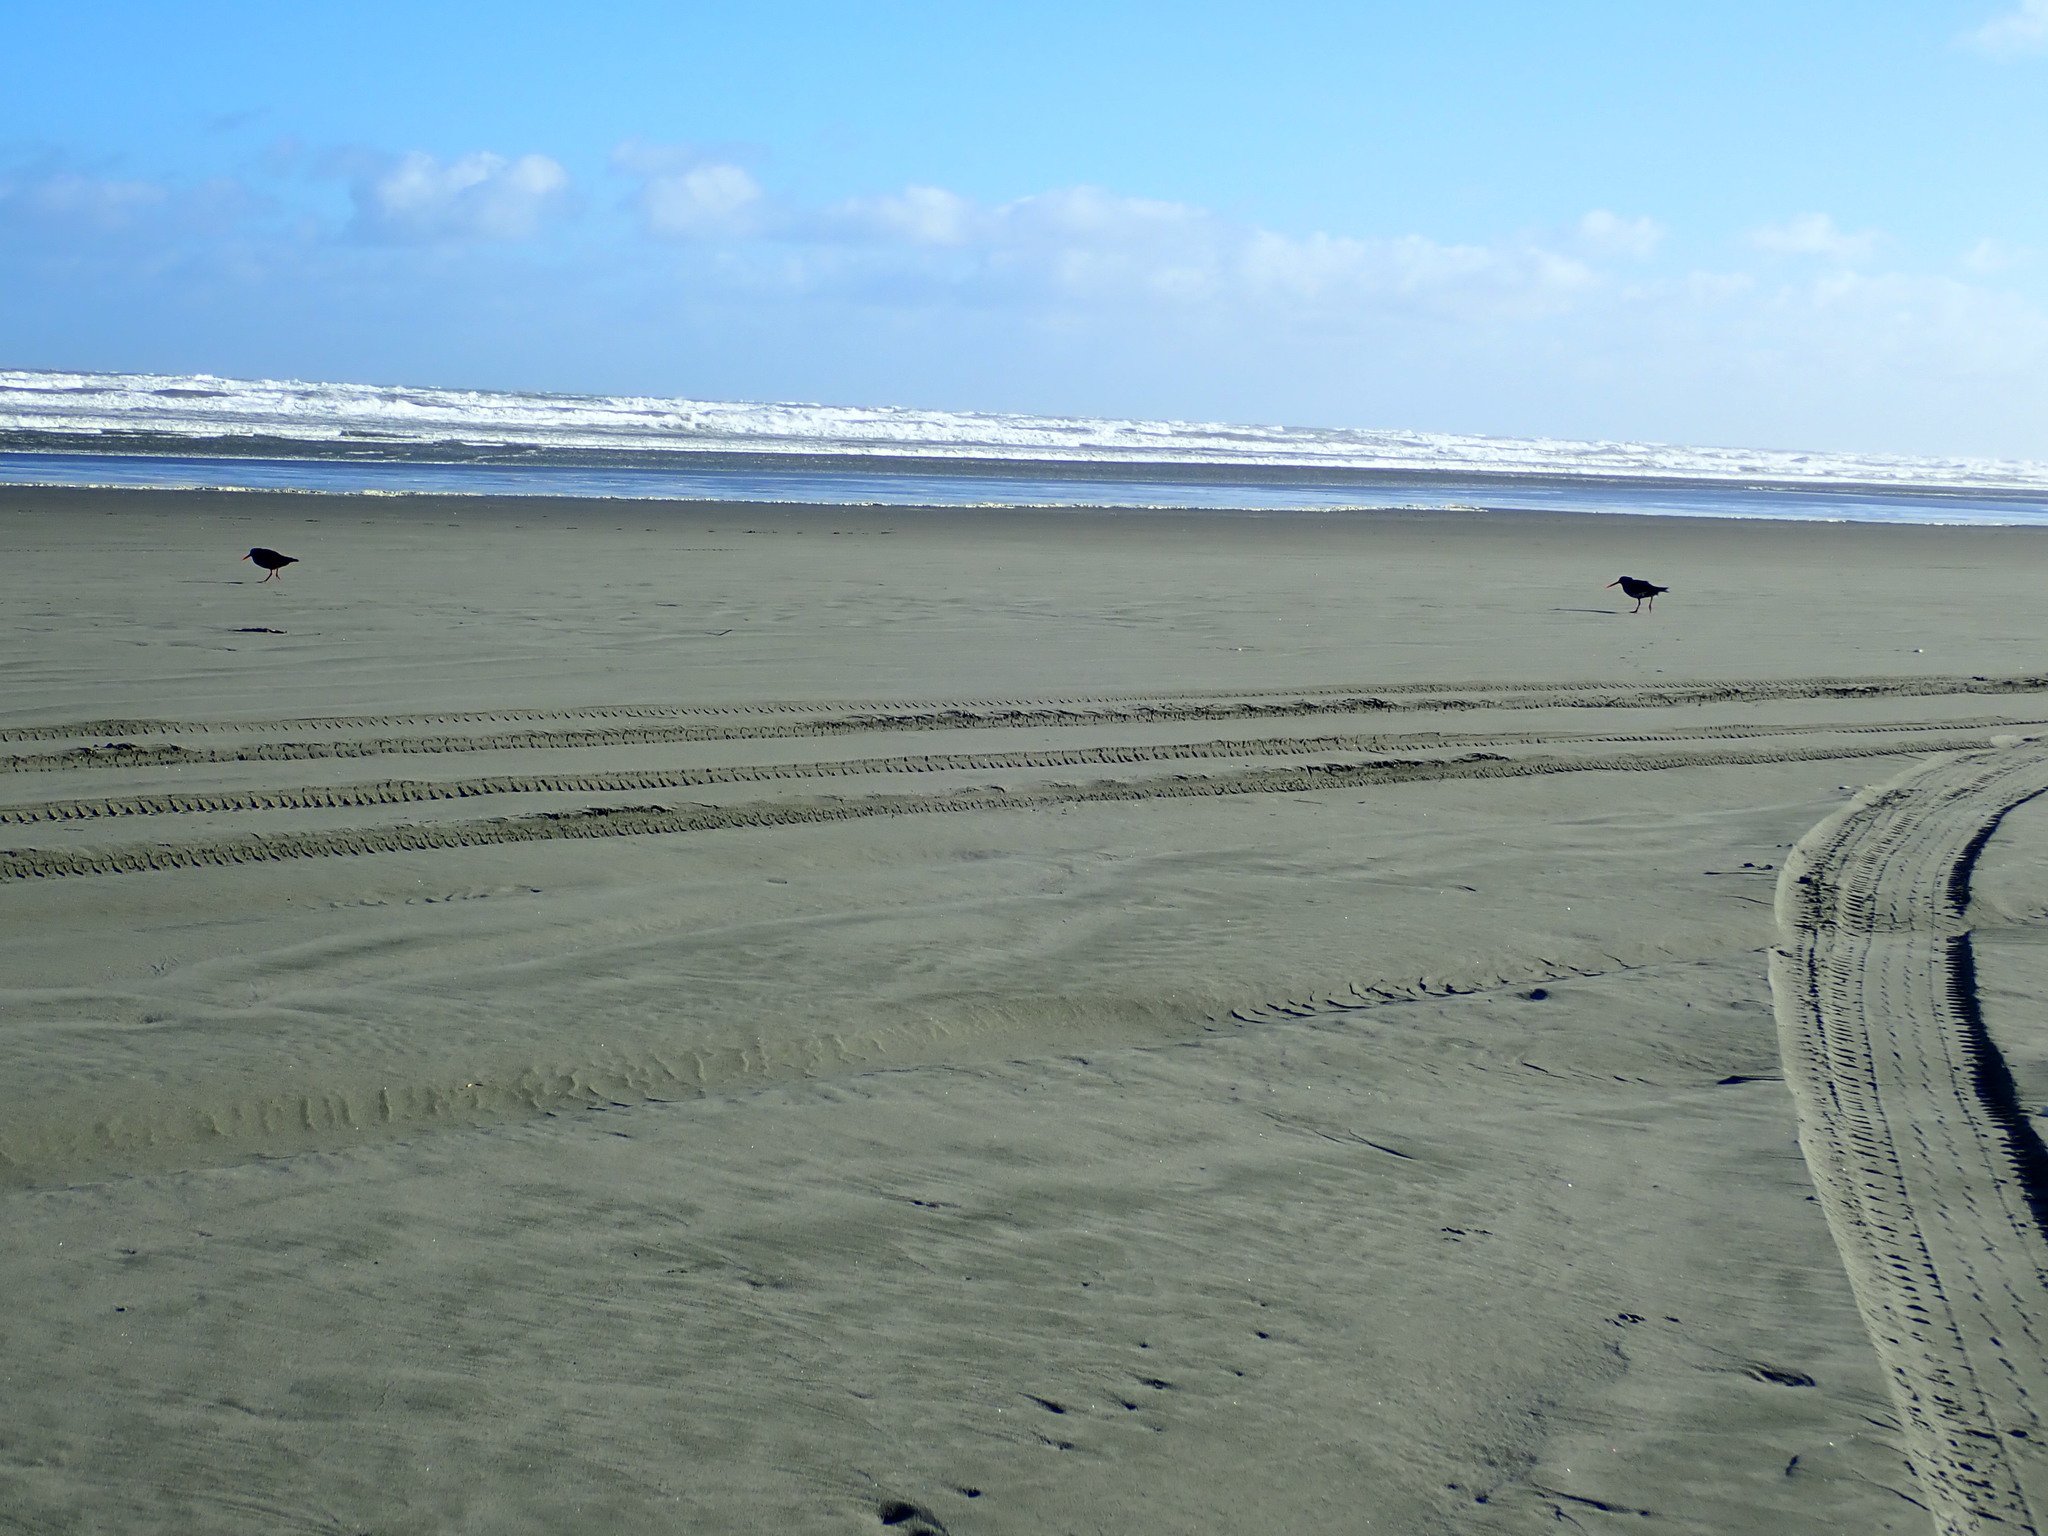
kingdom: Animalia
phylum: Chordata
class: Aves
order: Charadriiformes
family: Haematopodidae
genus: Haematopus
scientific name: Haematopus unicolor
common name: Variable oystercatcher
